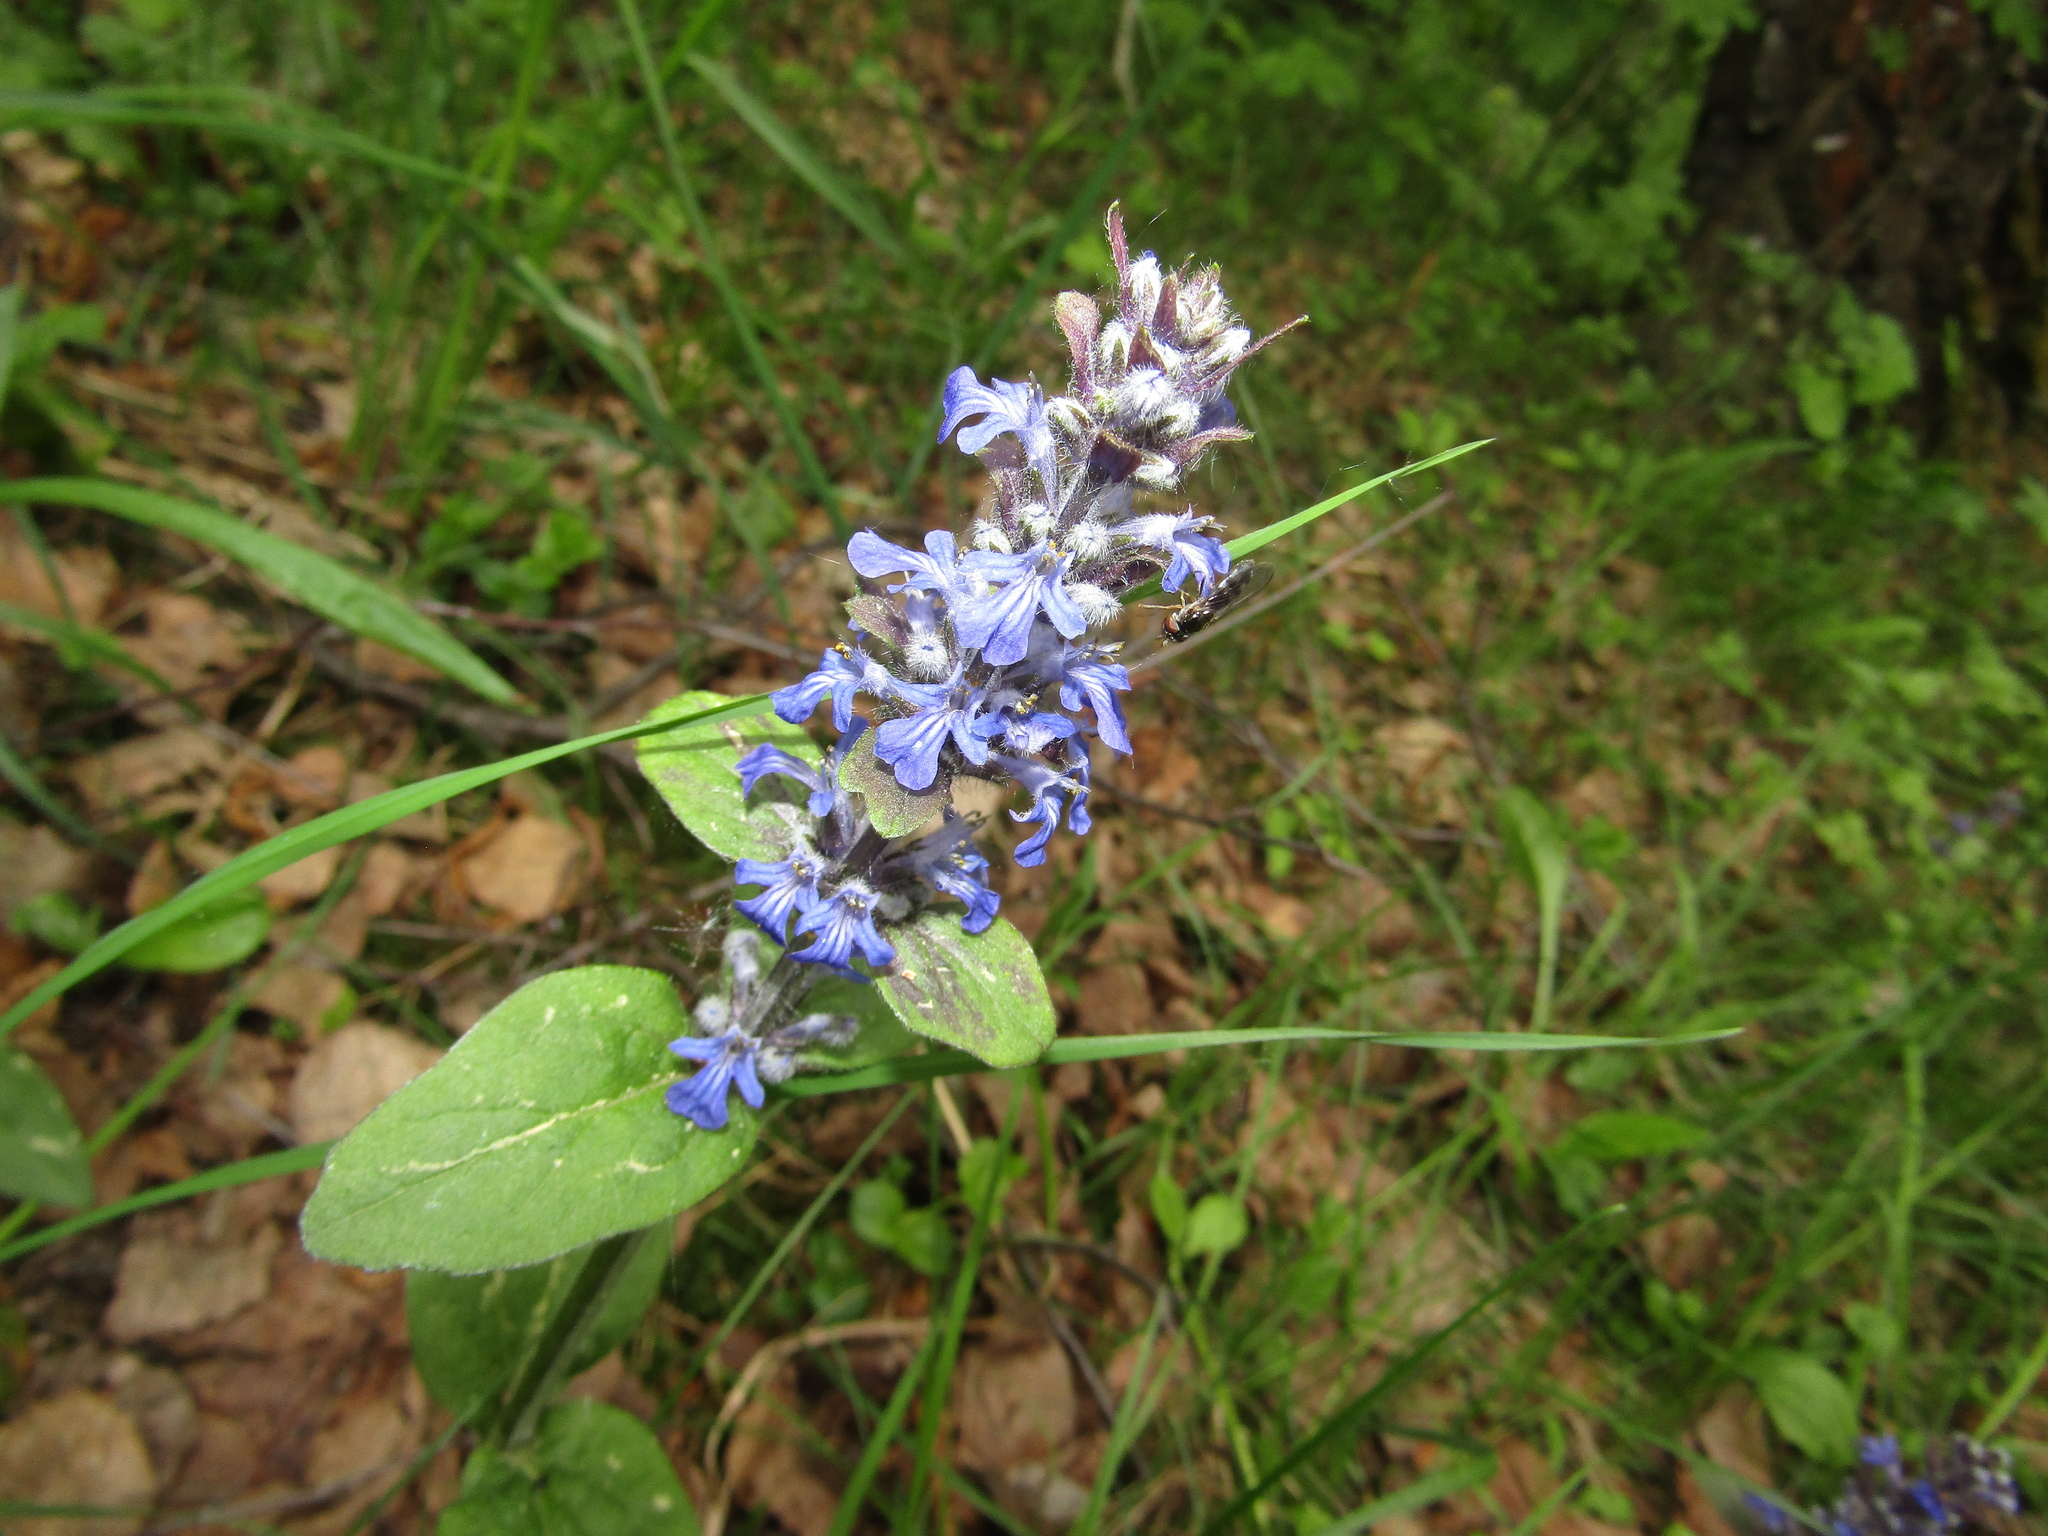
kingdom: Plantae
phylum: Tracheophyta
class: Magnoliopsida
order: Lamiales
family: Lamiaceae
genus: Ajuga
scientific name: Ajuga reptans
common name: Bugle
